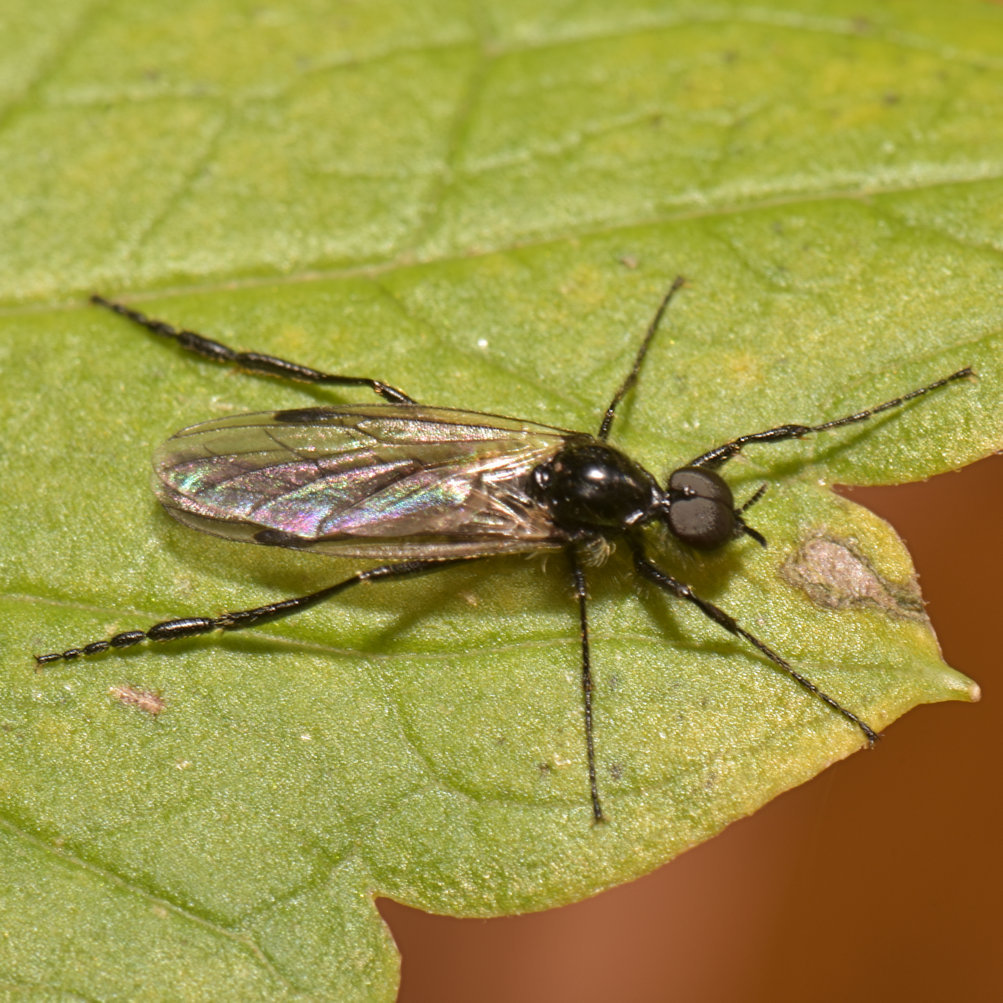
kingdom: Animalia
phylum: Arthropoda
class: Insecta
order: Diptera
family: Bibionidae
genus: Bibio
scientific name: Bibio longipes
